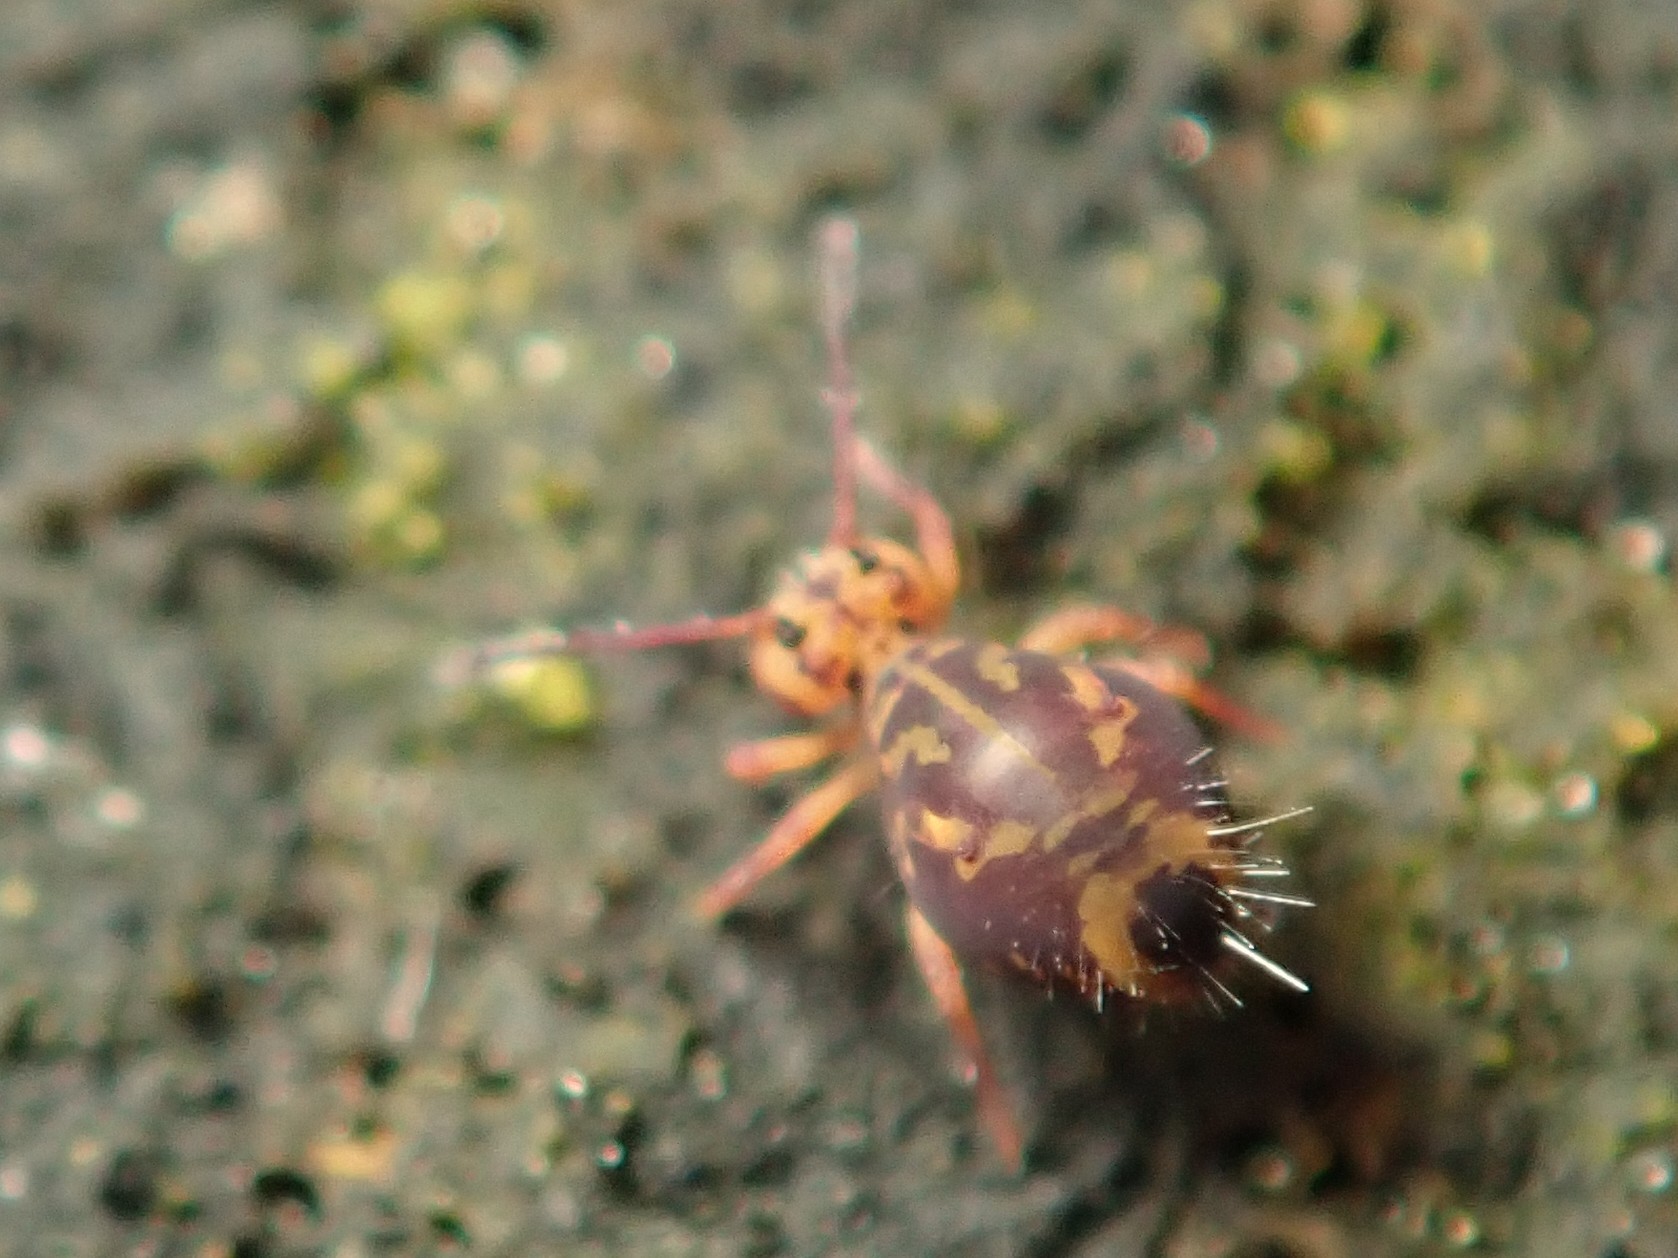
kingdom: Animalia
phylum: Arthropoda
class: Collembola
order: Symphypleona
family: Dicyrtomidae
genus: Dicyrtomina
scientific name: Dicyrtomina ornata
